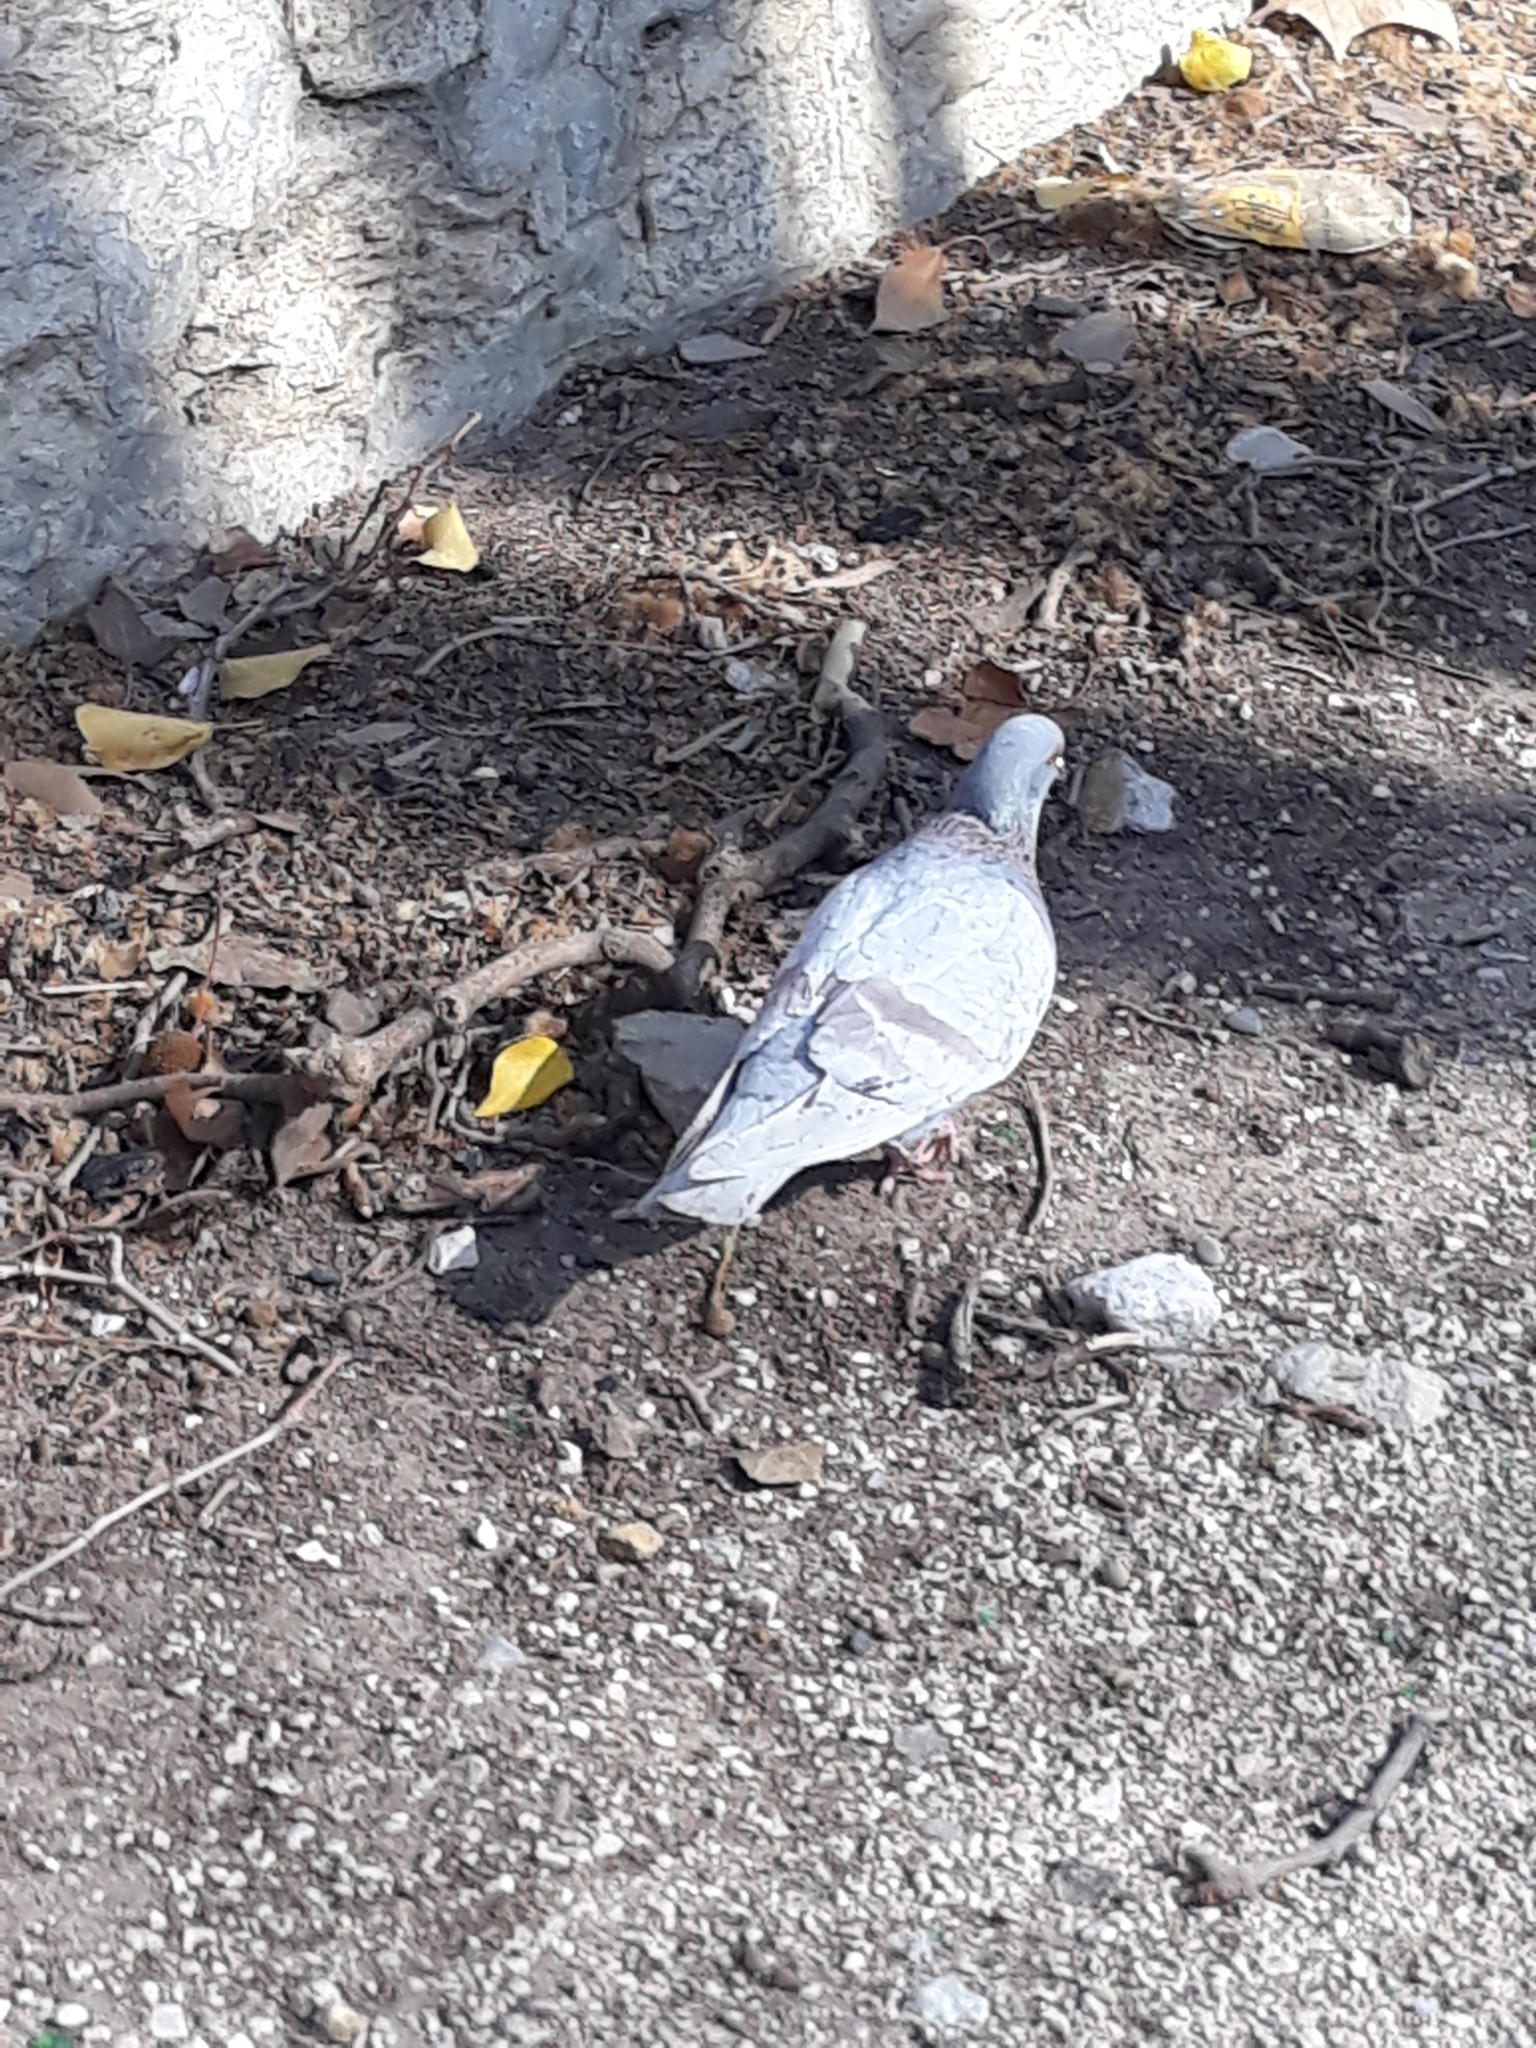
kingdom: Animalia
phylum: Chordata
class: Aves
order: Columbiformes
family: Columbidae
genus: Columba
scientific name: Columba livia
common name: Rock pigeon
